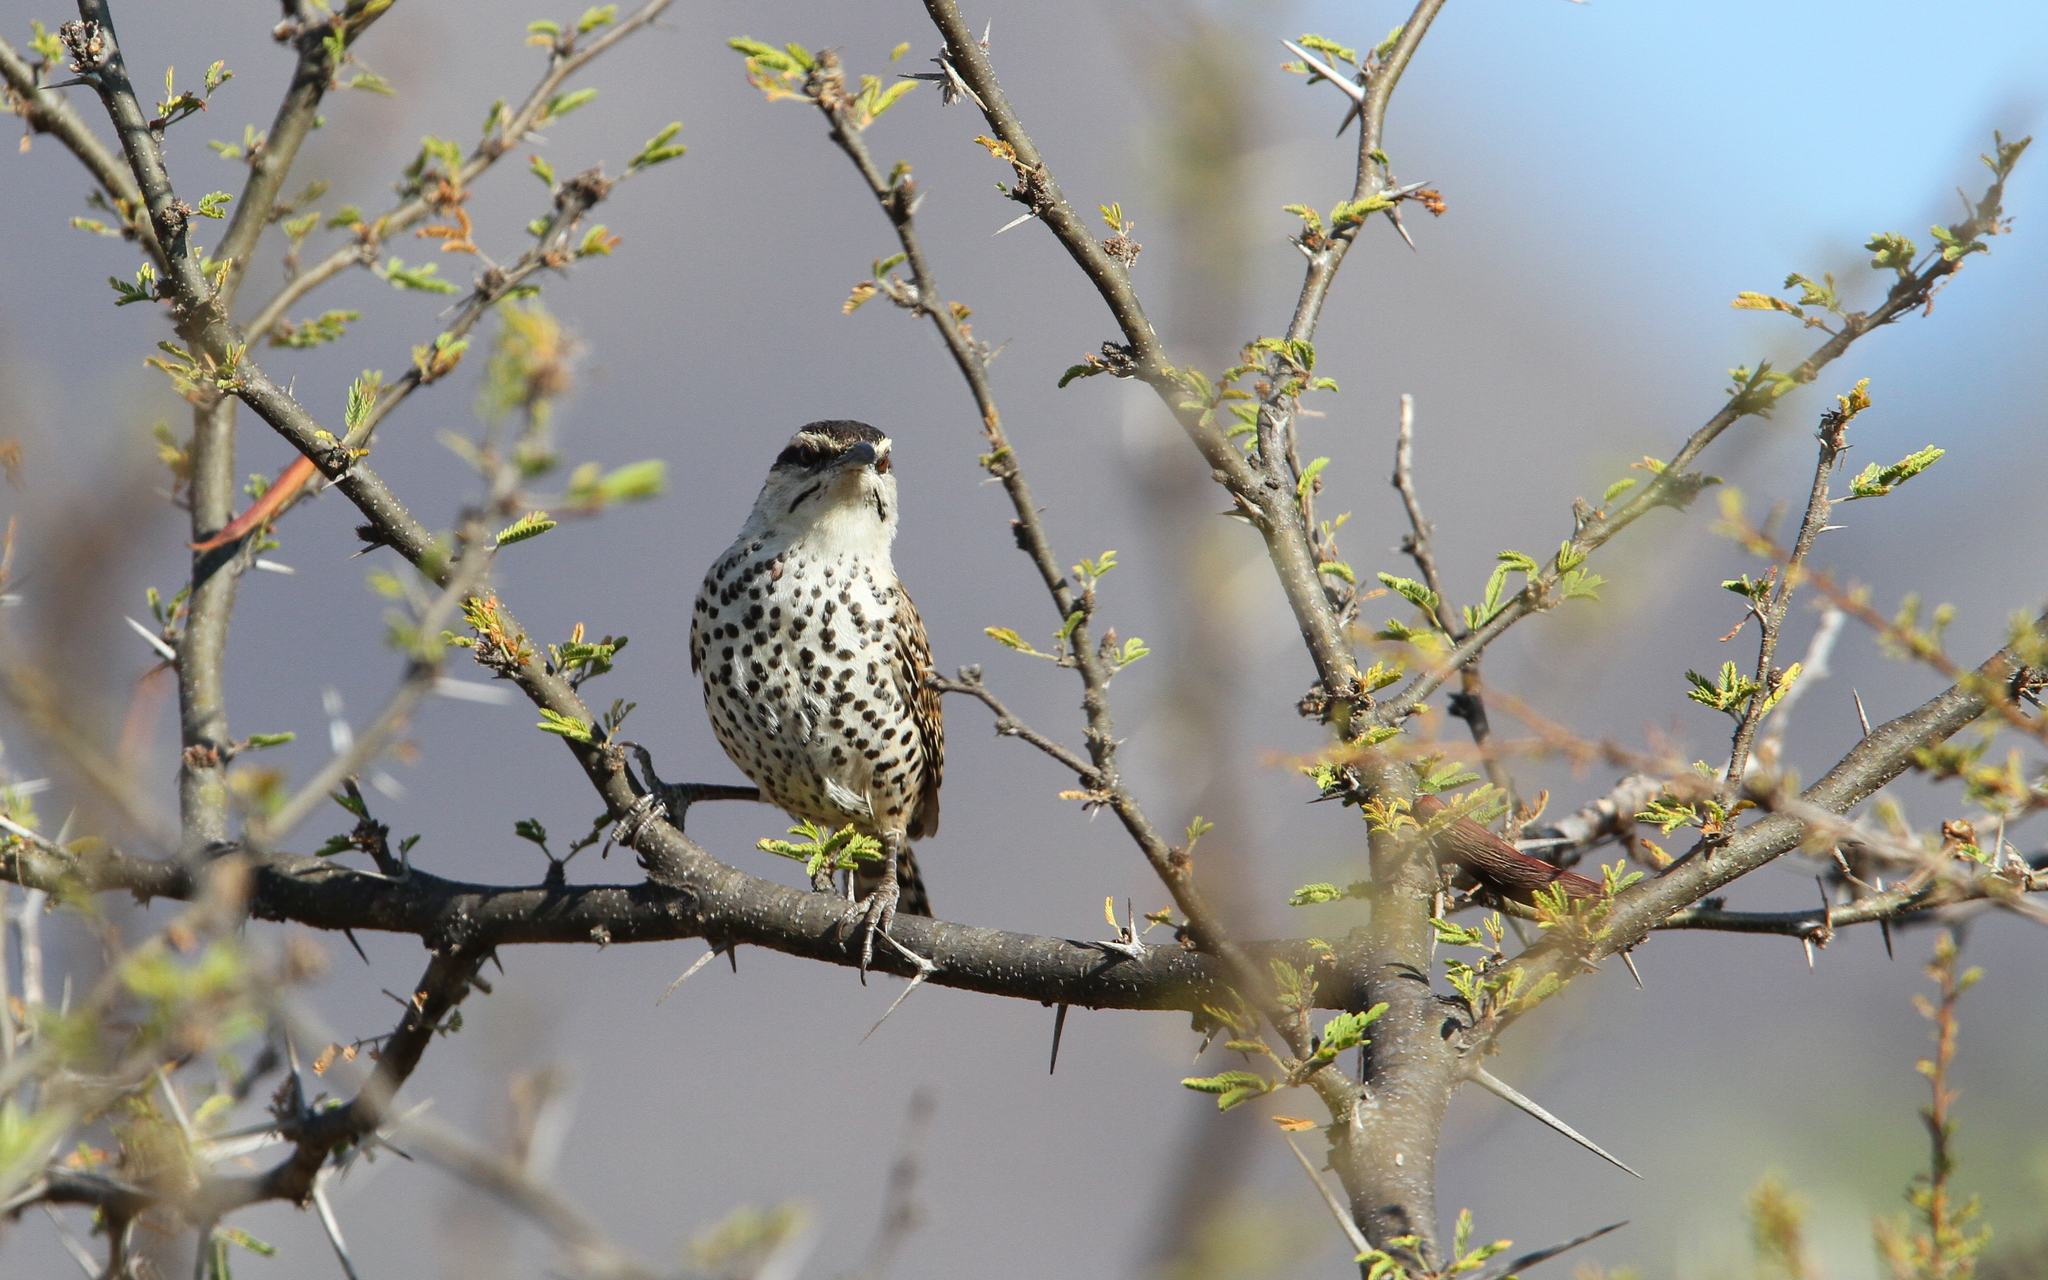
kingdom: Animalia
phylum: Chordata
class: Aves
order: Passeriformes
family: Troglodytidae
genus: Campylorhynchus
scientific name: Campylorhynchus jocosus
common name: Boucard's wren
